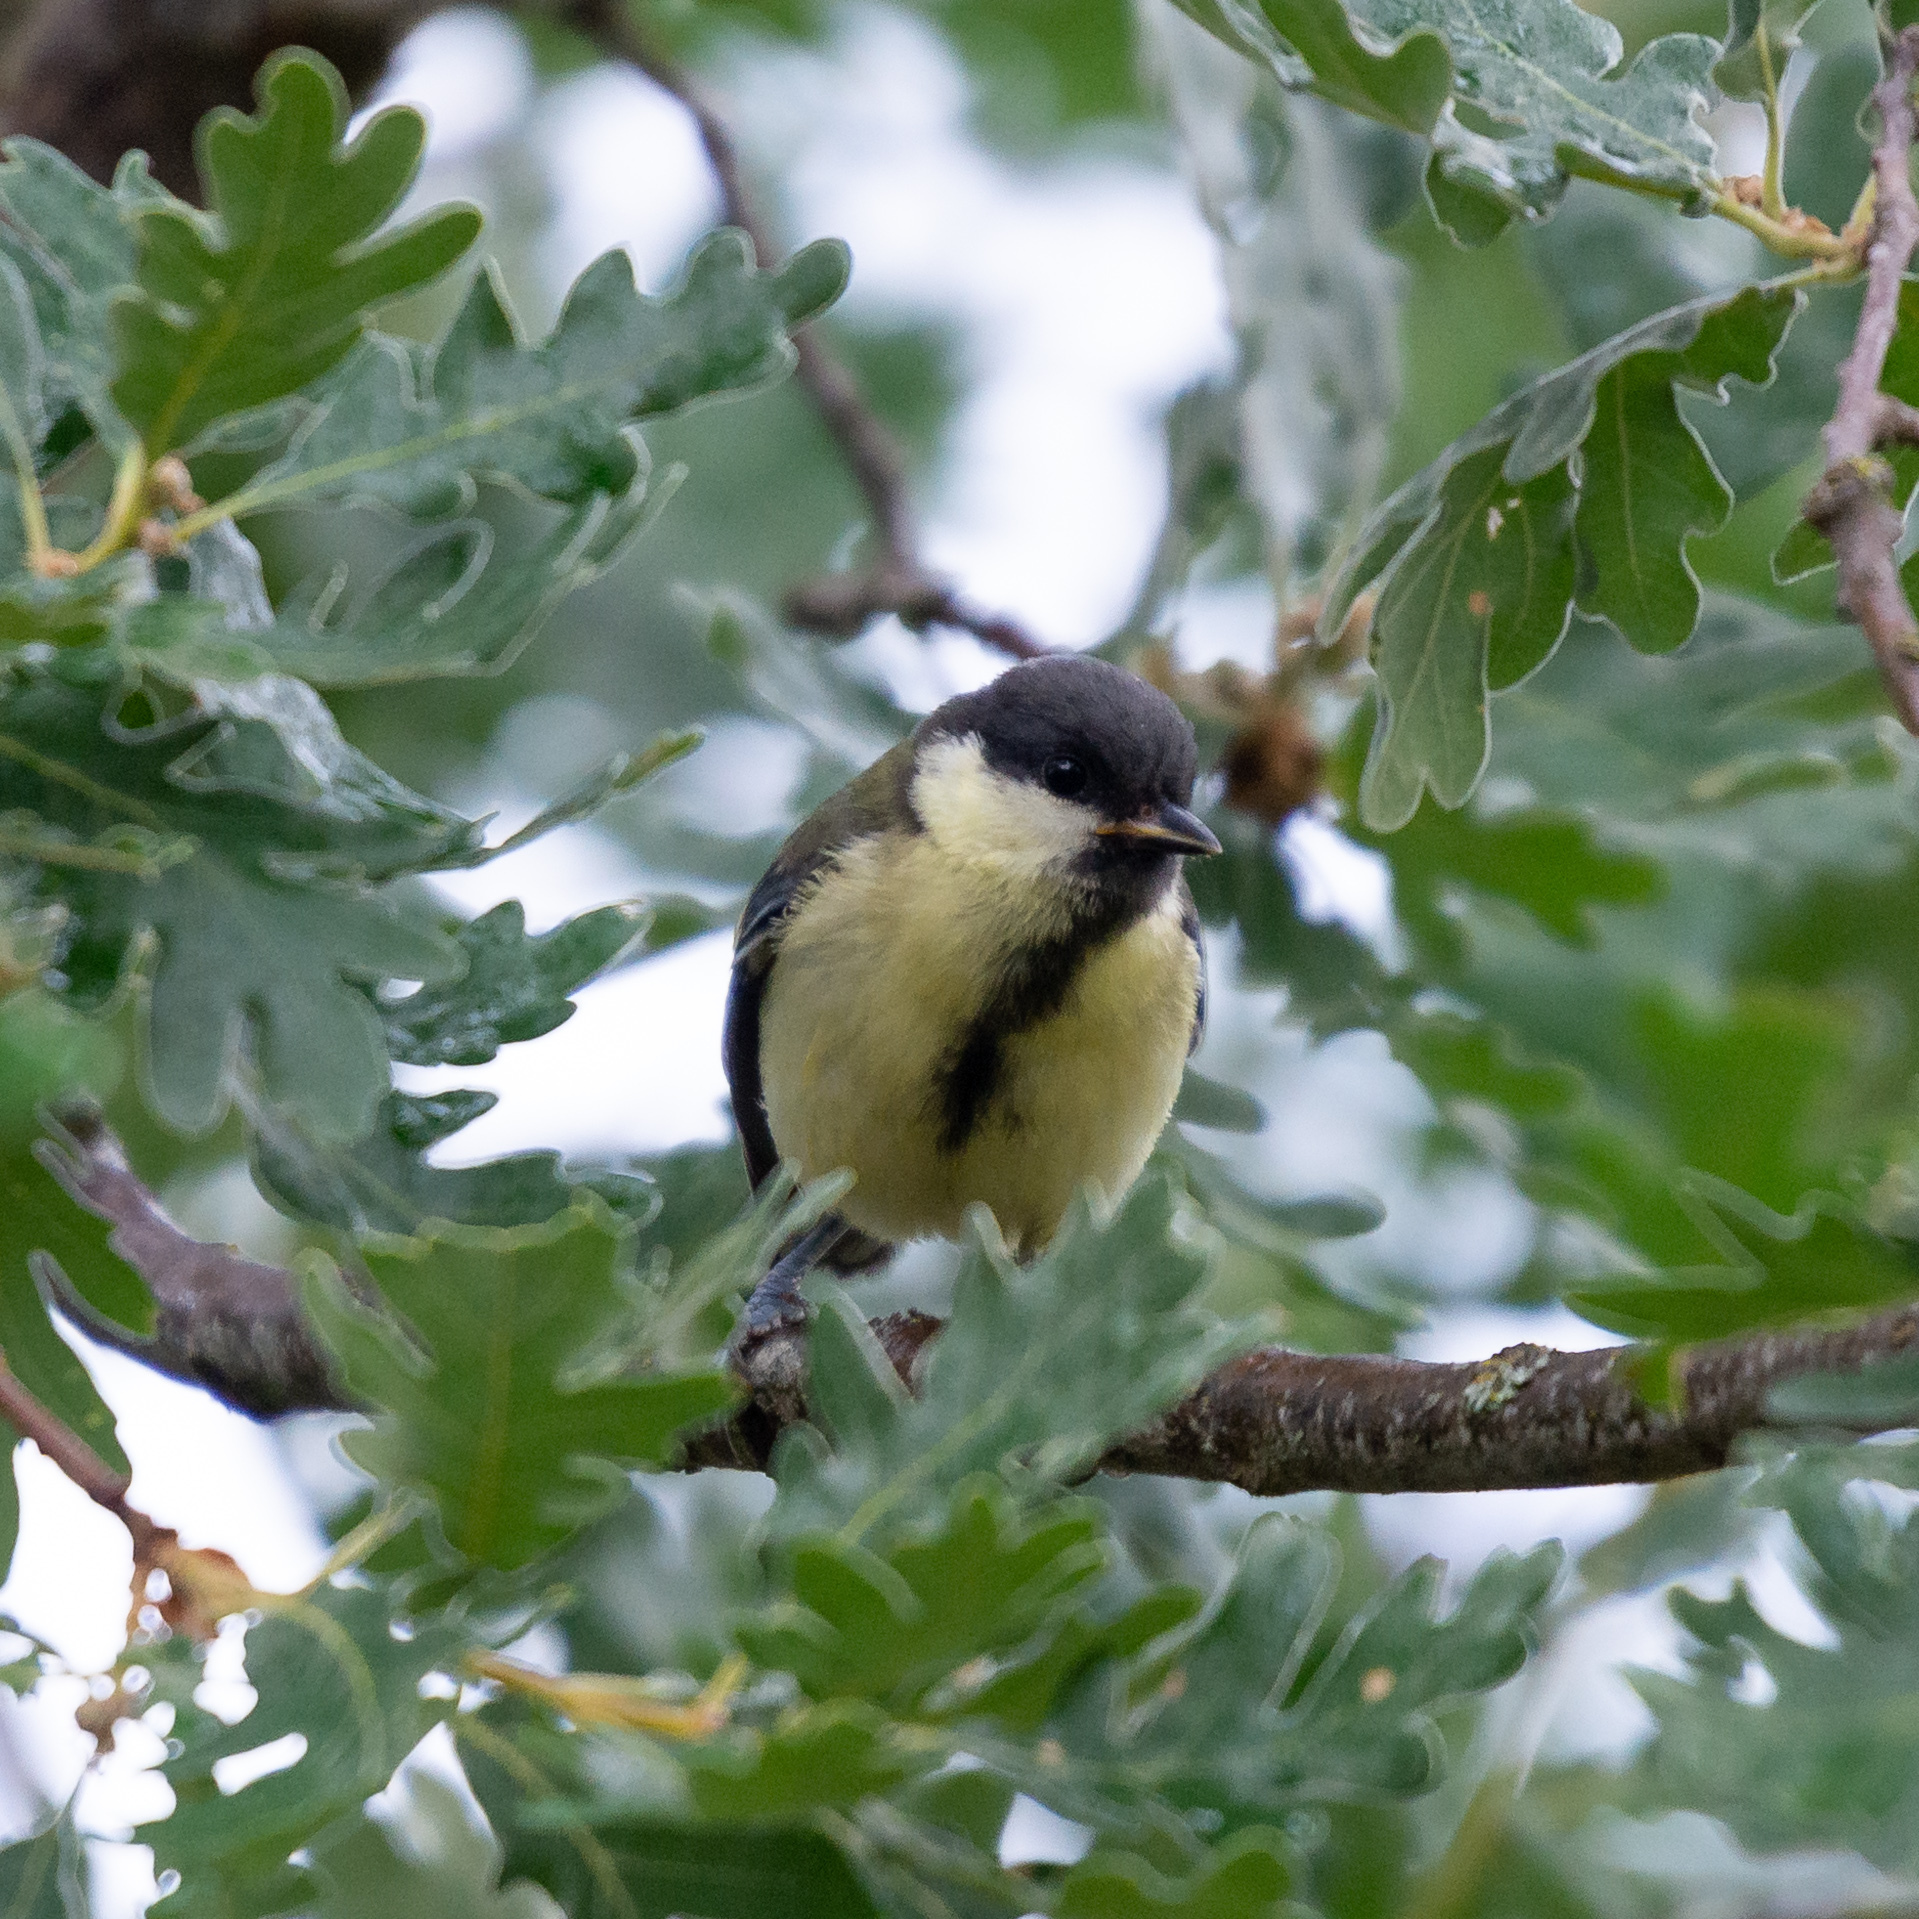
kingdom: Animalia
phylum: Chordata
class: Aves
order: Passeriformes
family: Paridae
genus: Parus
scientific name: Parus major
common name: Great tit
